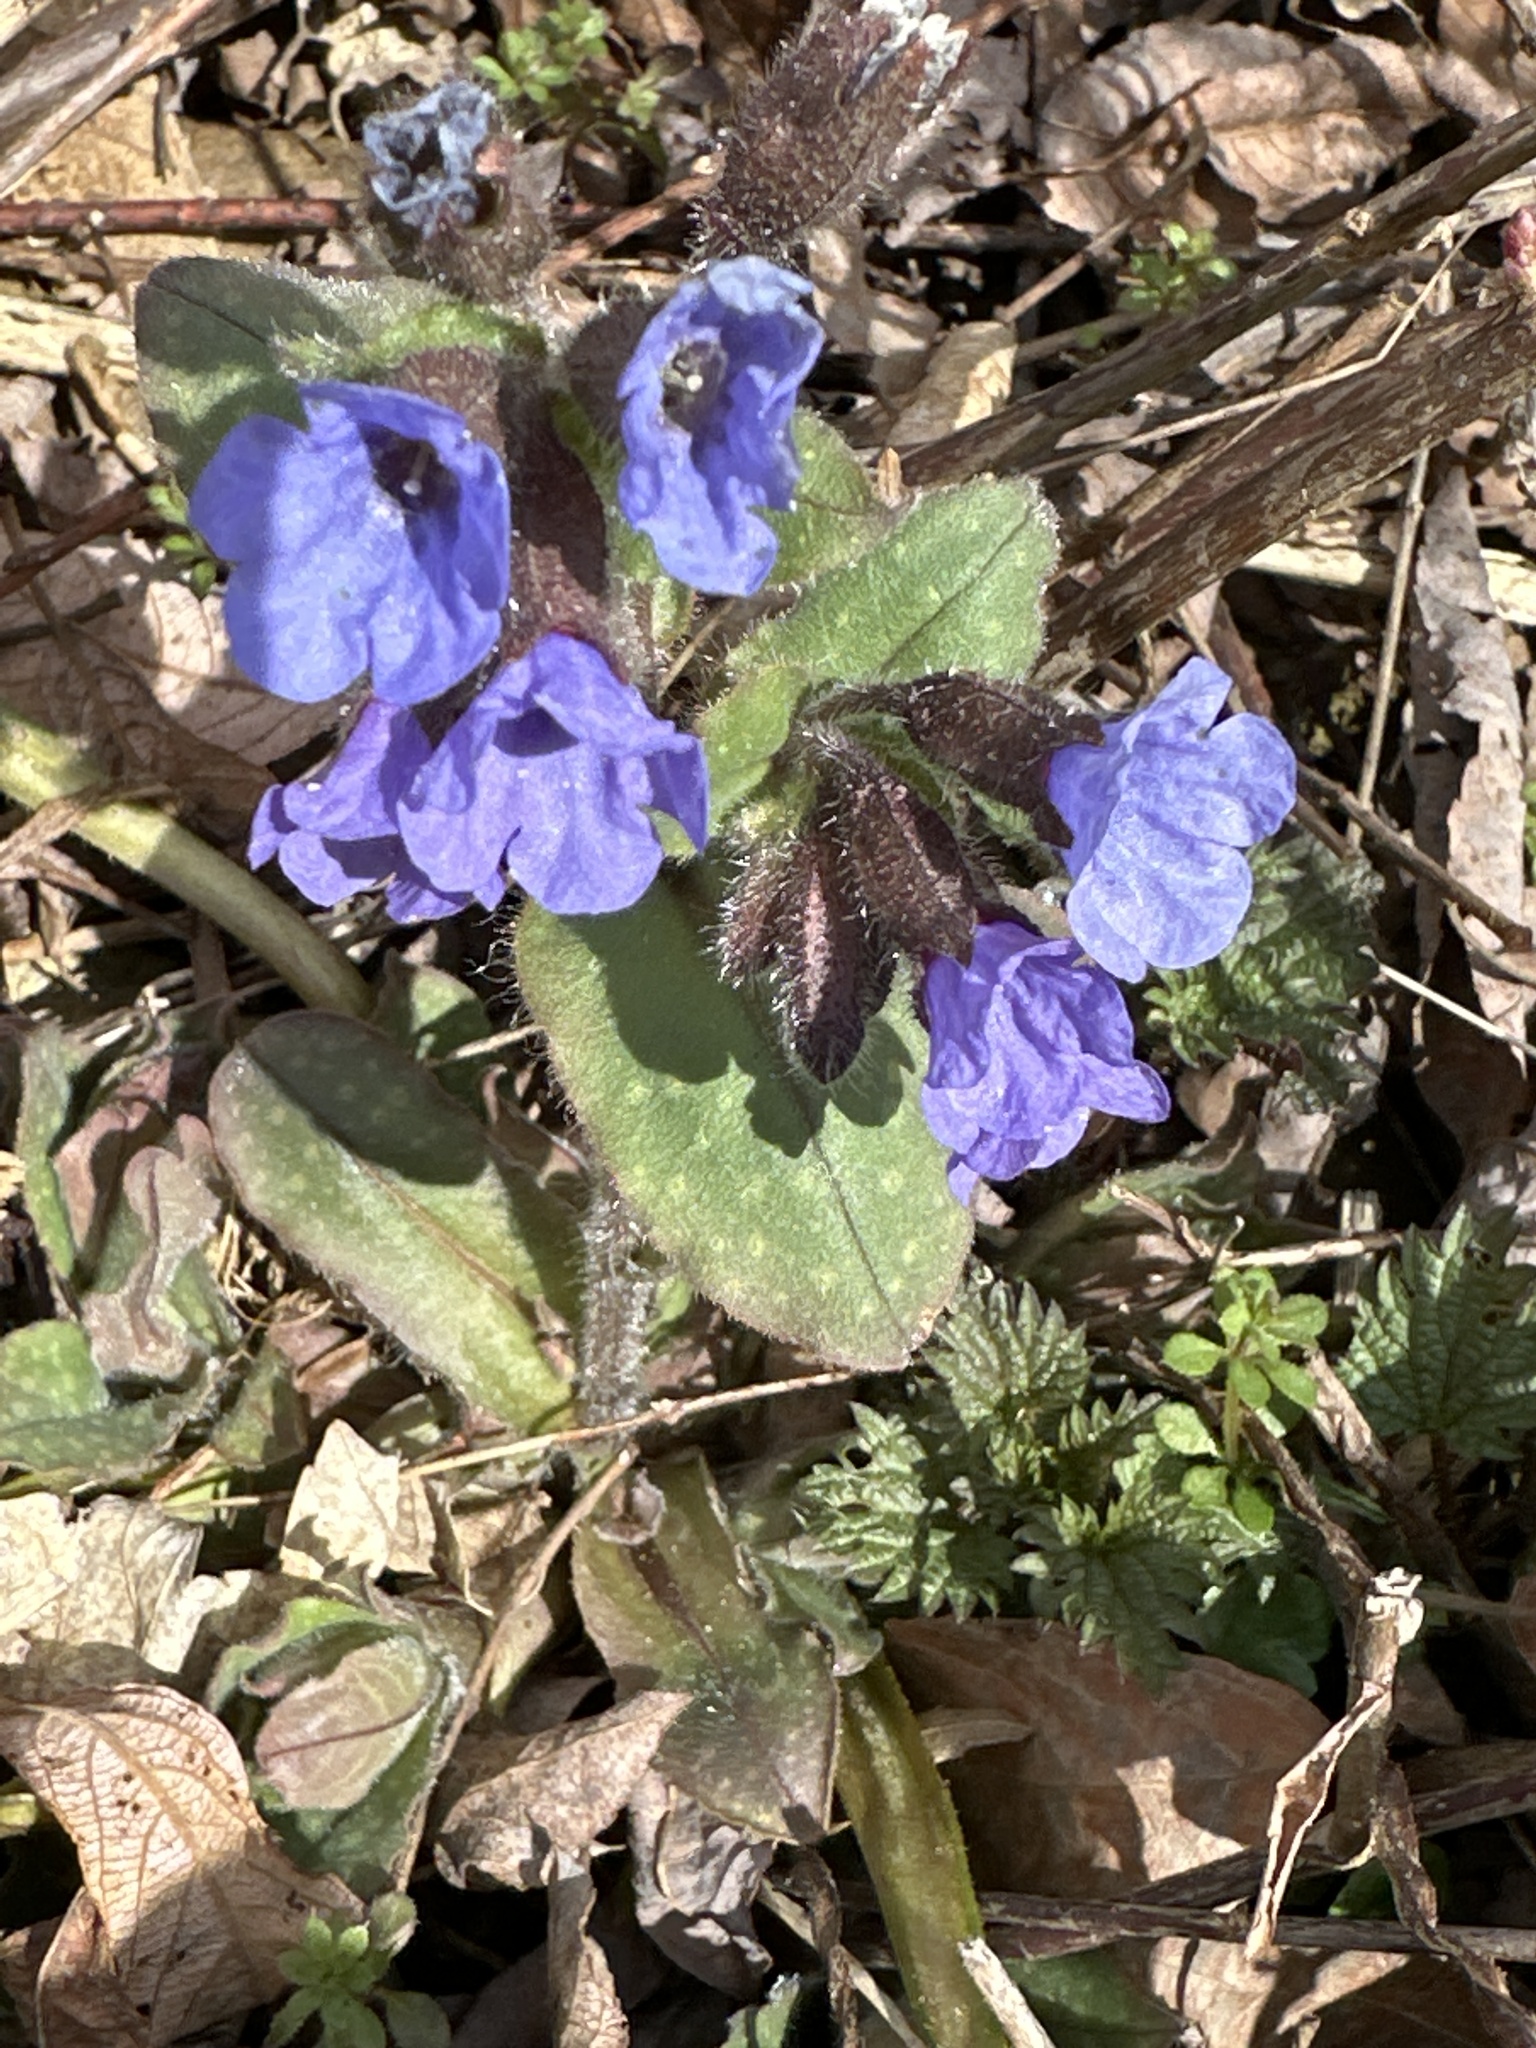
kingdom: Plantae
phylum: Tracheophyta
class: Magnoliopsida
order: Boraginales
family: Boraginaceae
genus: Pulmonaria
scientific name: Pulmonaria officinalis
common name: Lungwort
